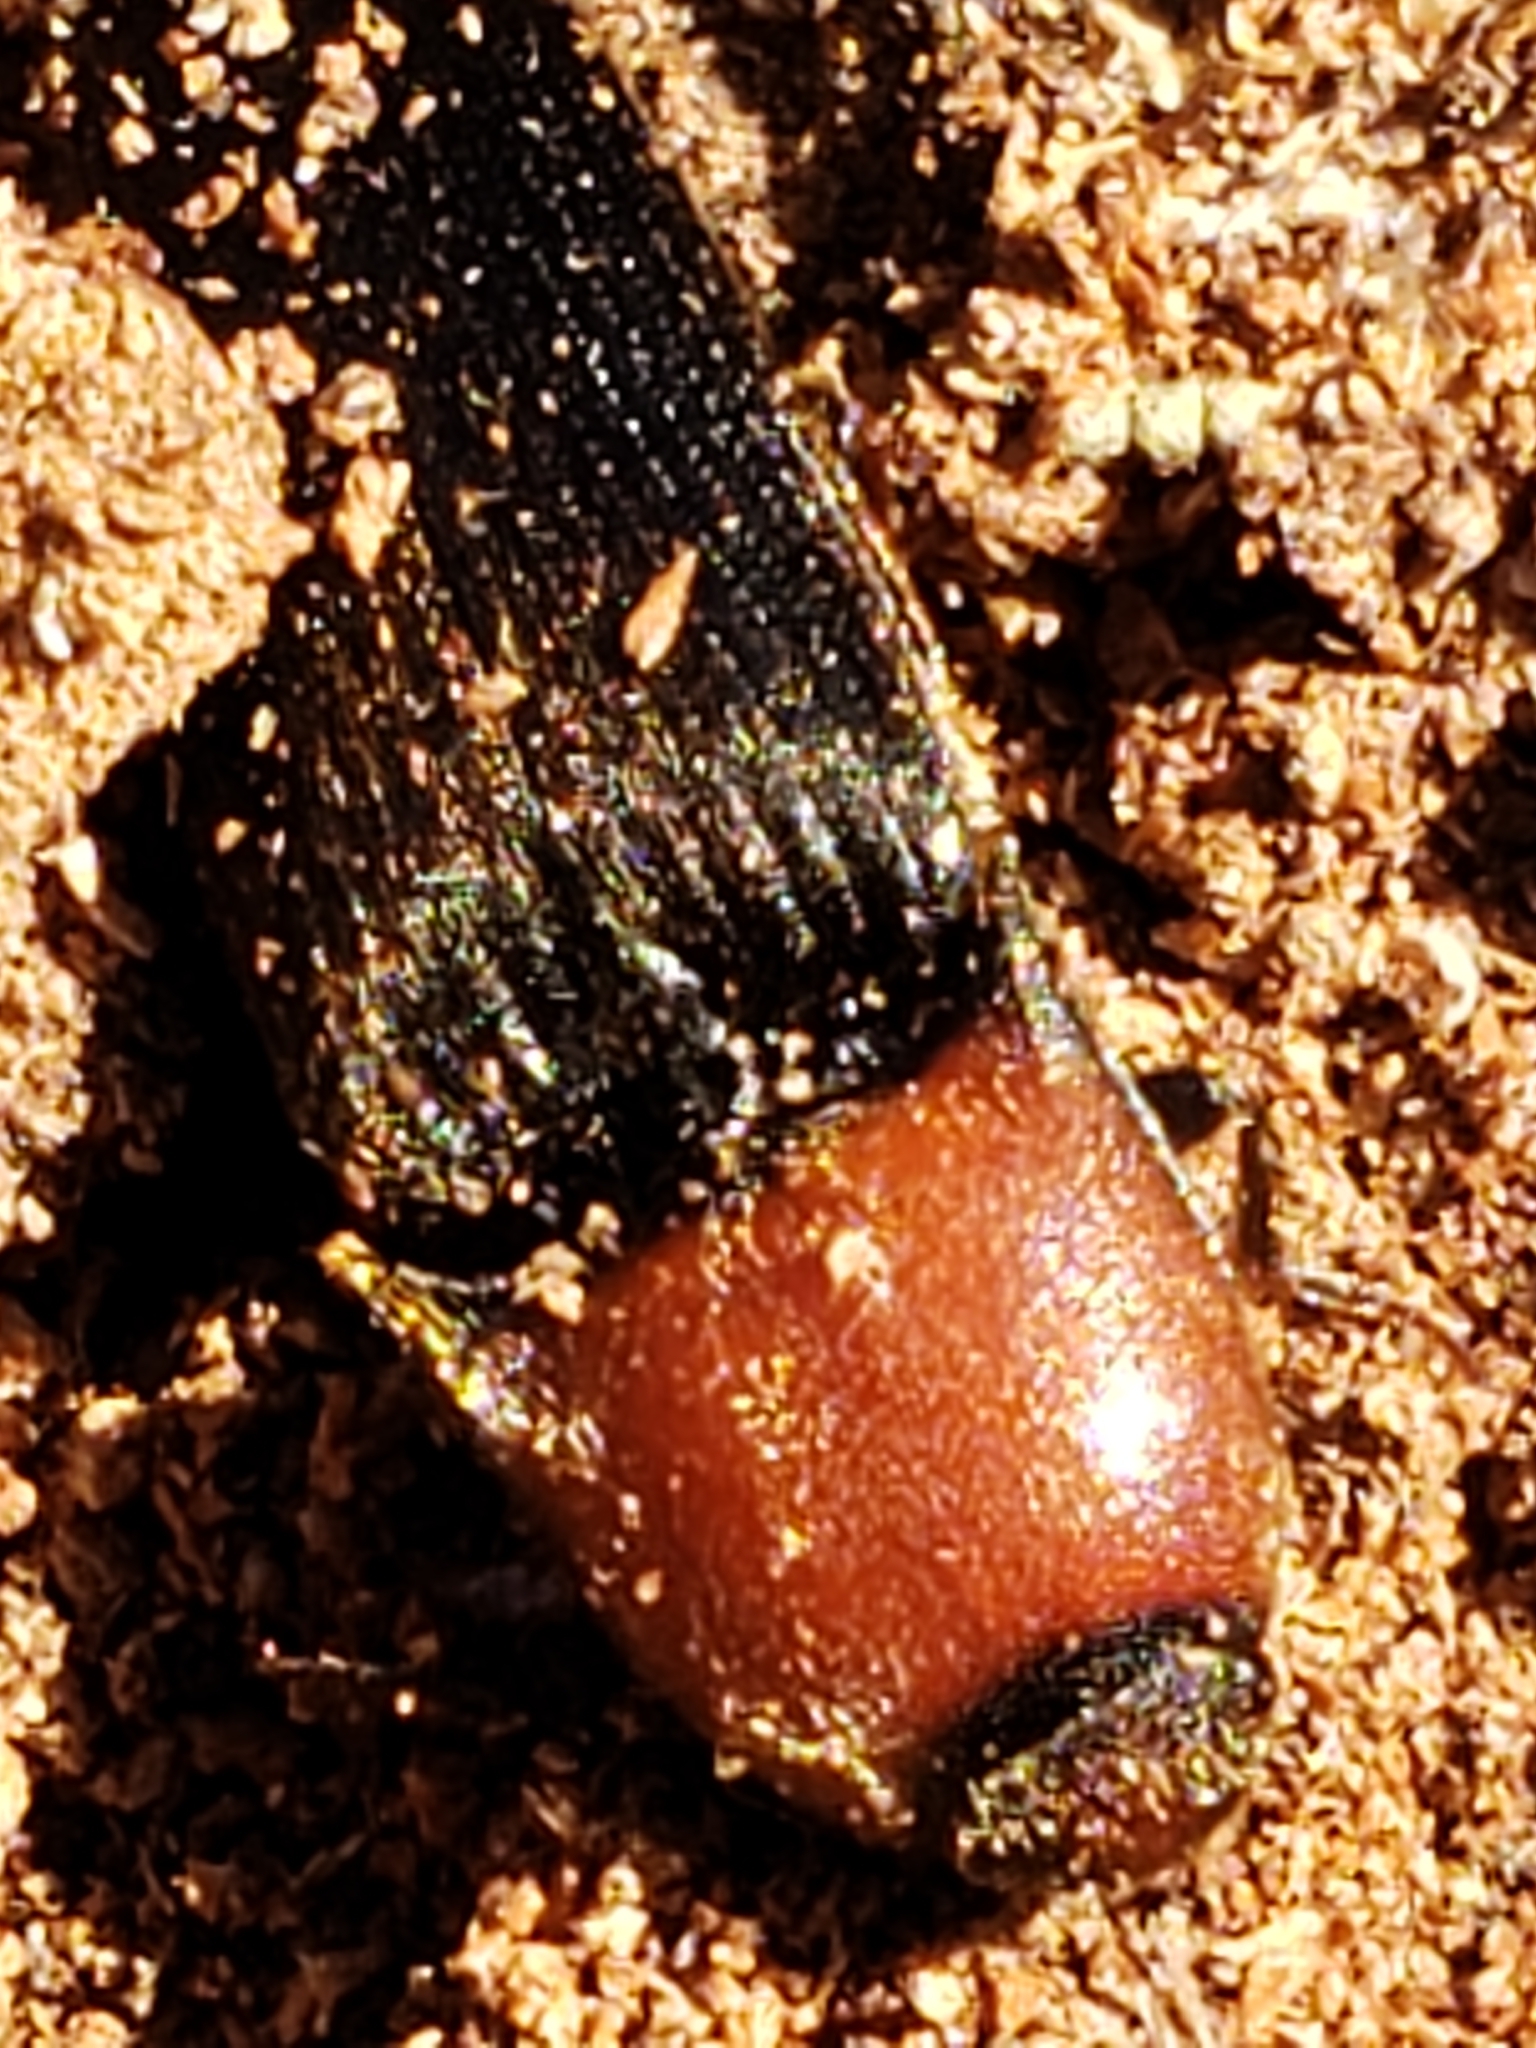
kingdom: Animalia
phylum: Arthropoda
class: Insecta
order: Coleoptera
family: Elateridae
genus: Ampedus
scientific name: Ampedus rubricollis
